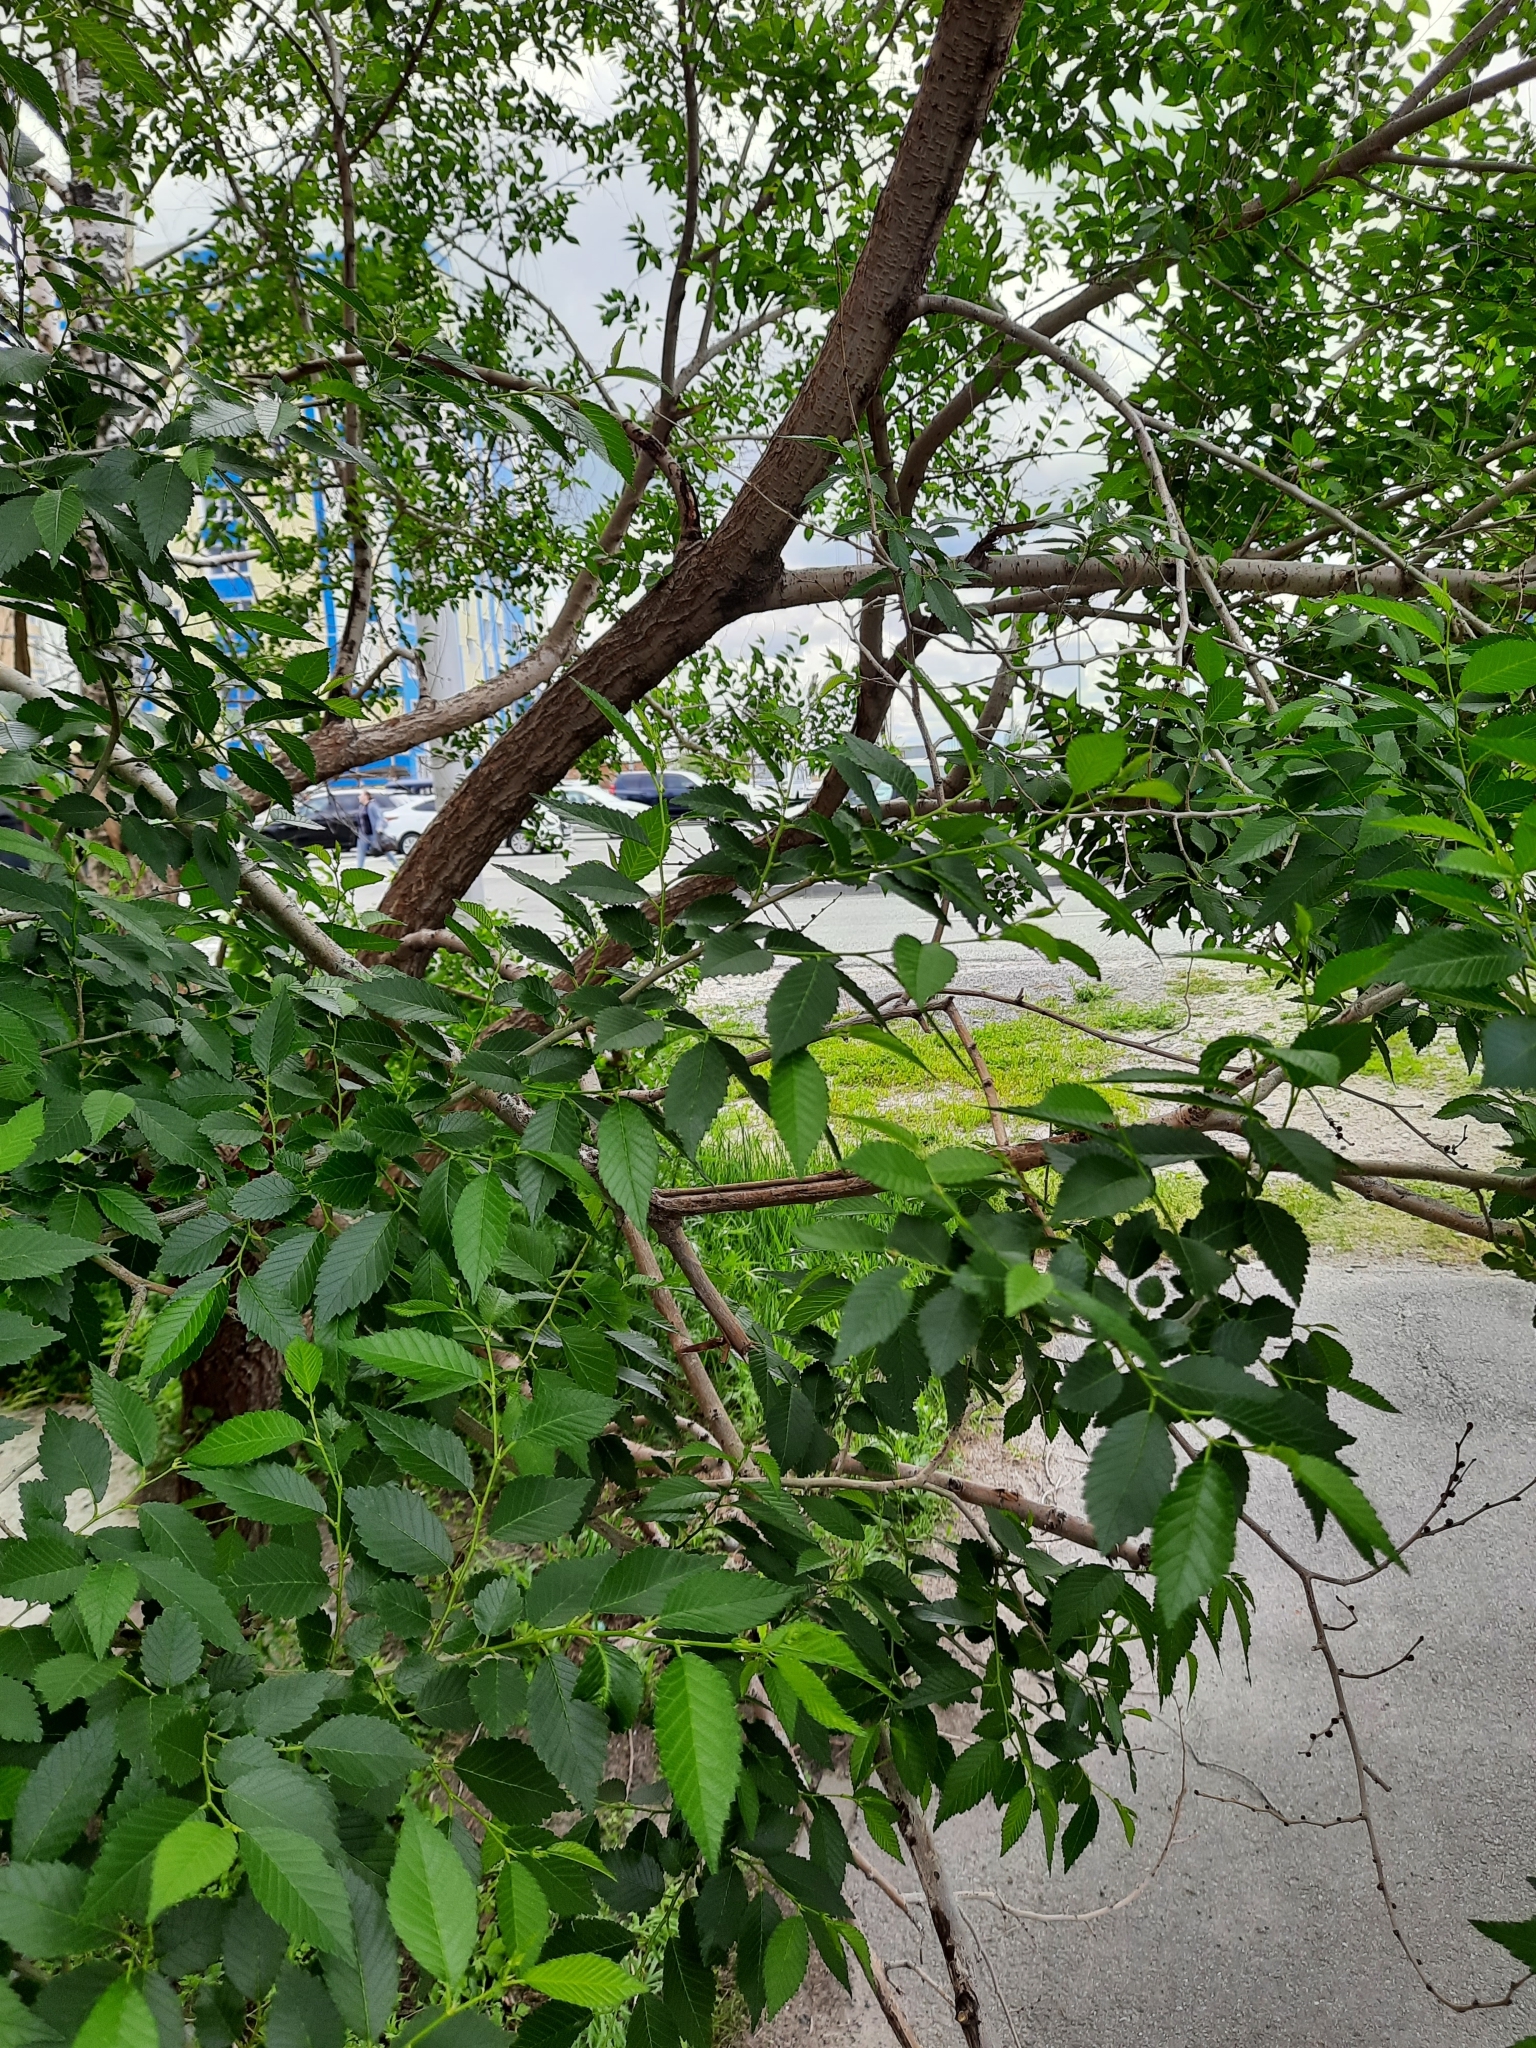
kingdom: Plantae
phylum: Tracheophyta
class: Magnoliopsida
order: Rosales
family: Ulmaceae
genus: Ulmus
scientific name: Ulmus pumila
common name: Siberian elm
